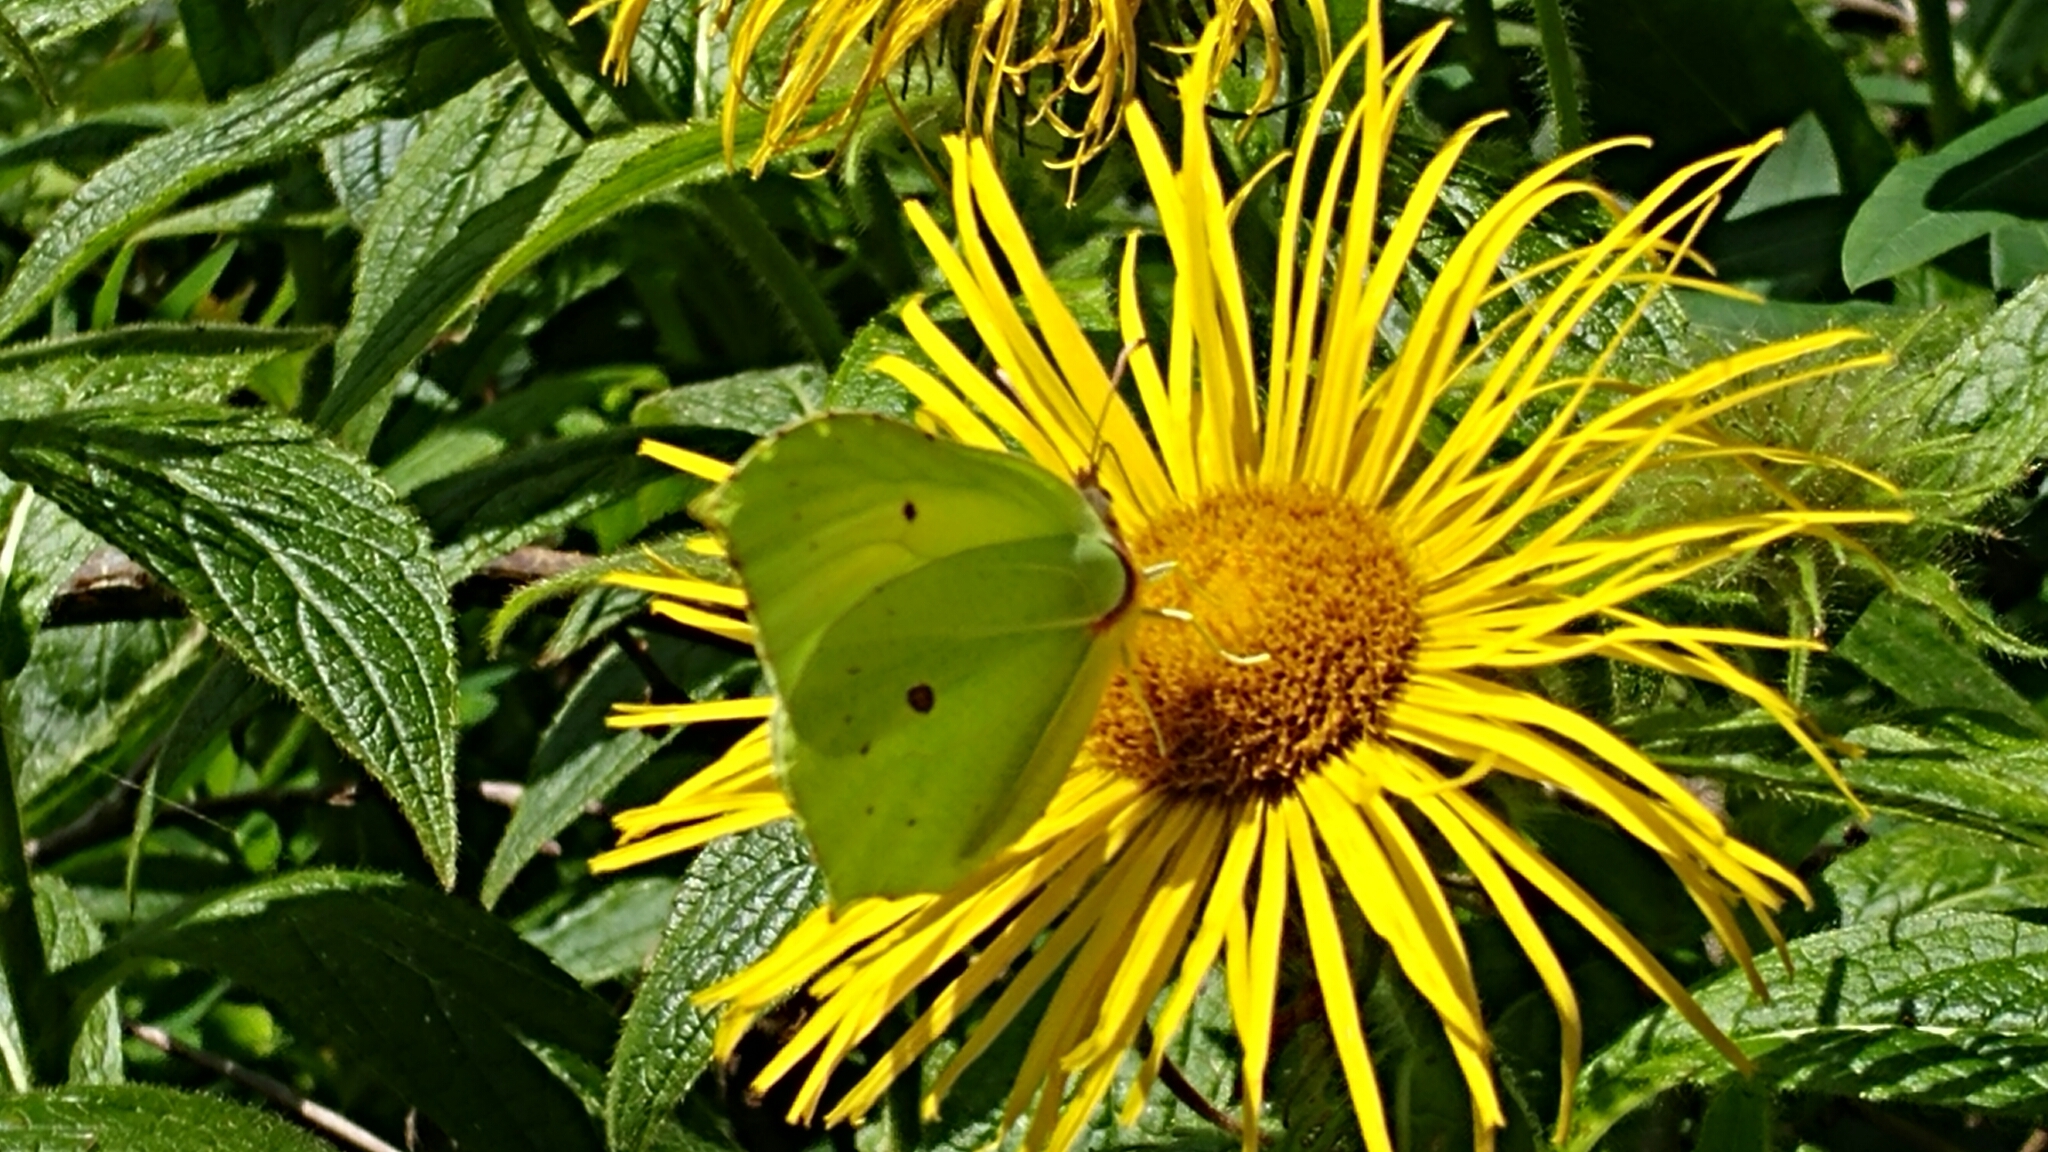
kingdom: Animalia
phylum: Arthropoda
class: Insecta
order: Lepidoptera
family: Pieridae
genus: Gonepteryx
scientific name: Gonepteryx rhamni
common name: Brimstone
